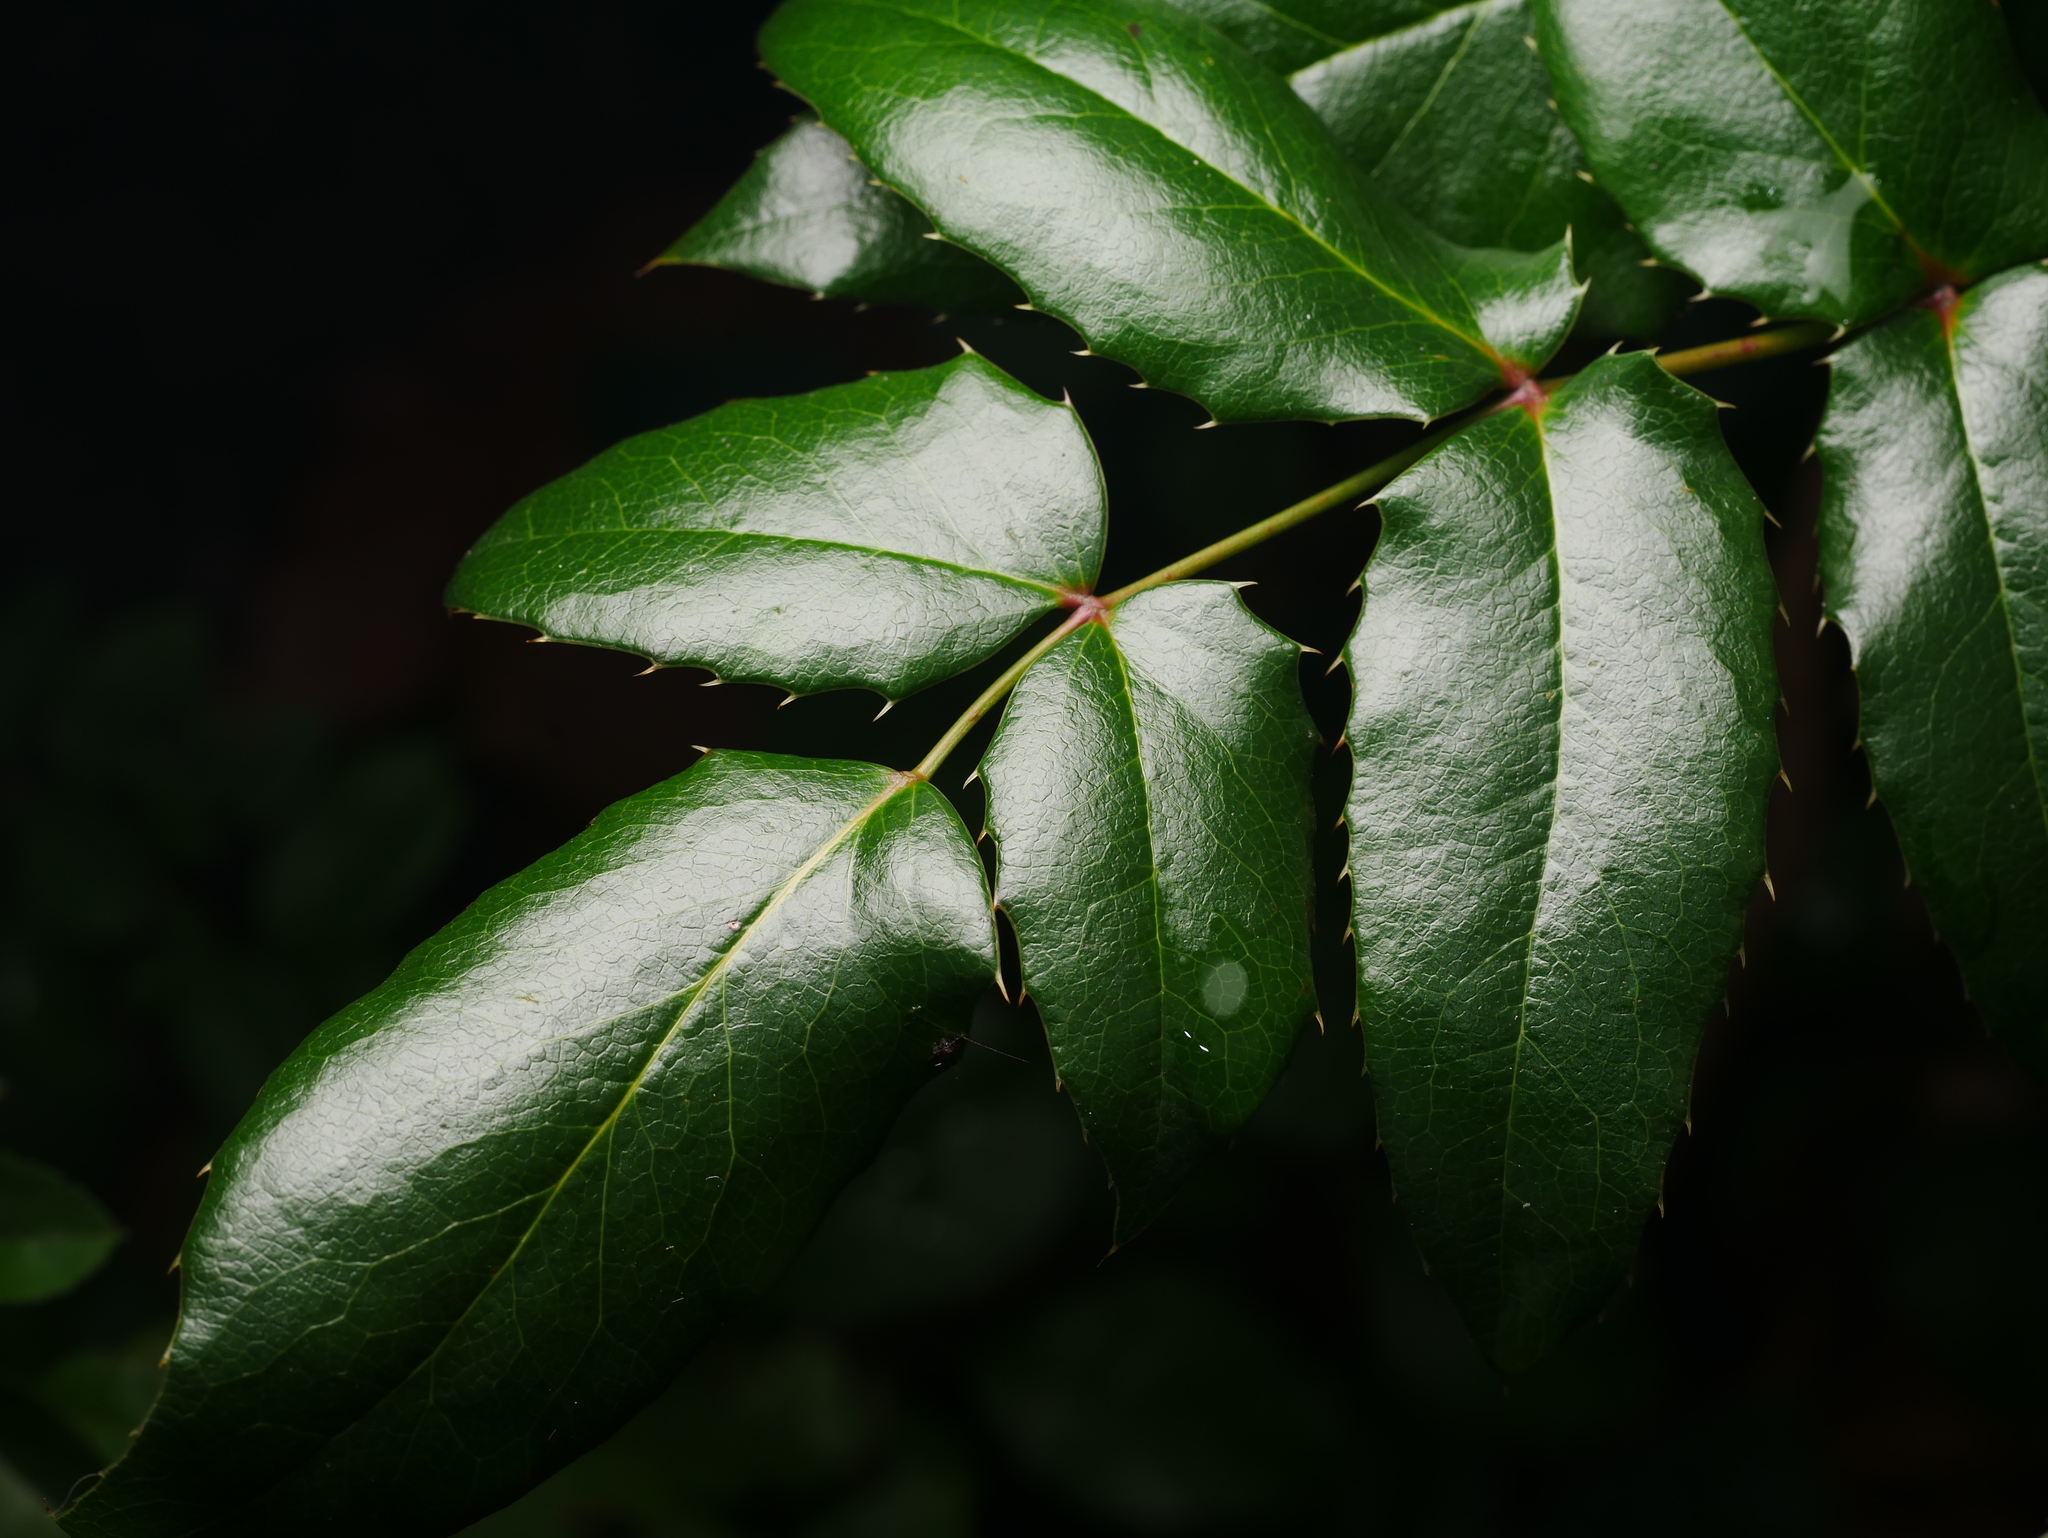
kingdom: Plantae
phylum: Tracheophyta
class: Magnoliopsida
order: Ranunculales
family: Berberidaceae
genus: Mahonia
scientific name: Mahonia aquifolium
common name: Oregon-grape
